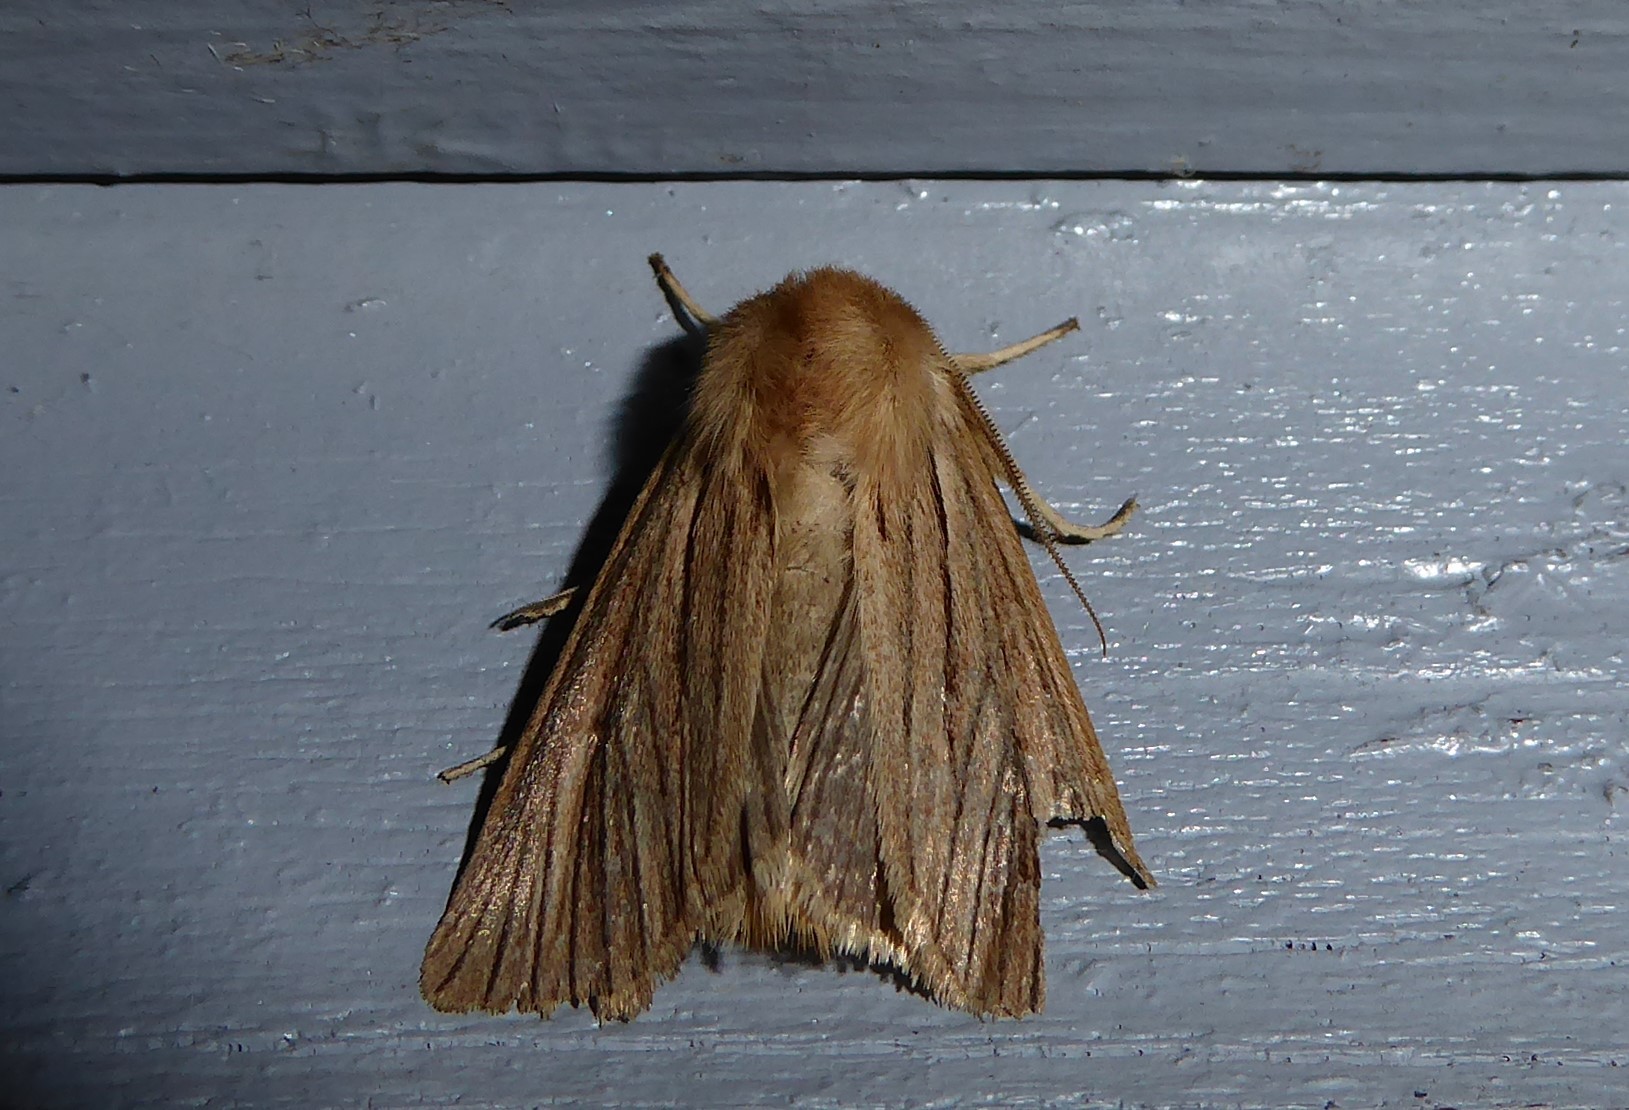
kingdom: Animalia
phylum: Arthropoda
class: Insecta
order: Lepidoptera
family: Noctuidae
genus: Ichneutica
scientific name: Ichneutica
